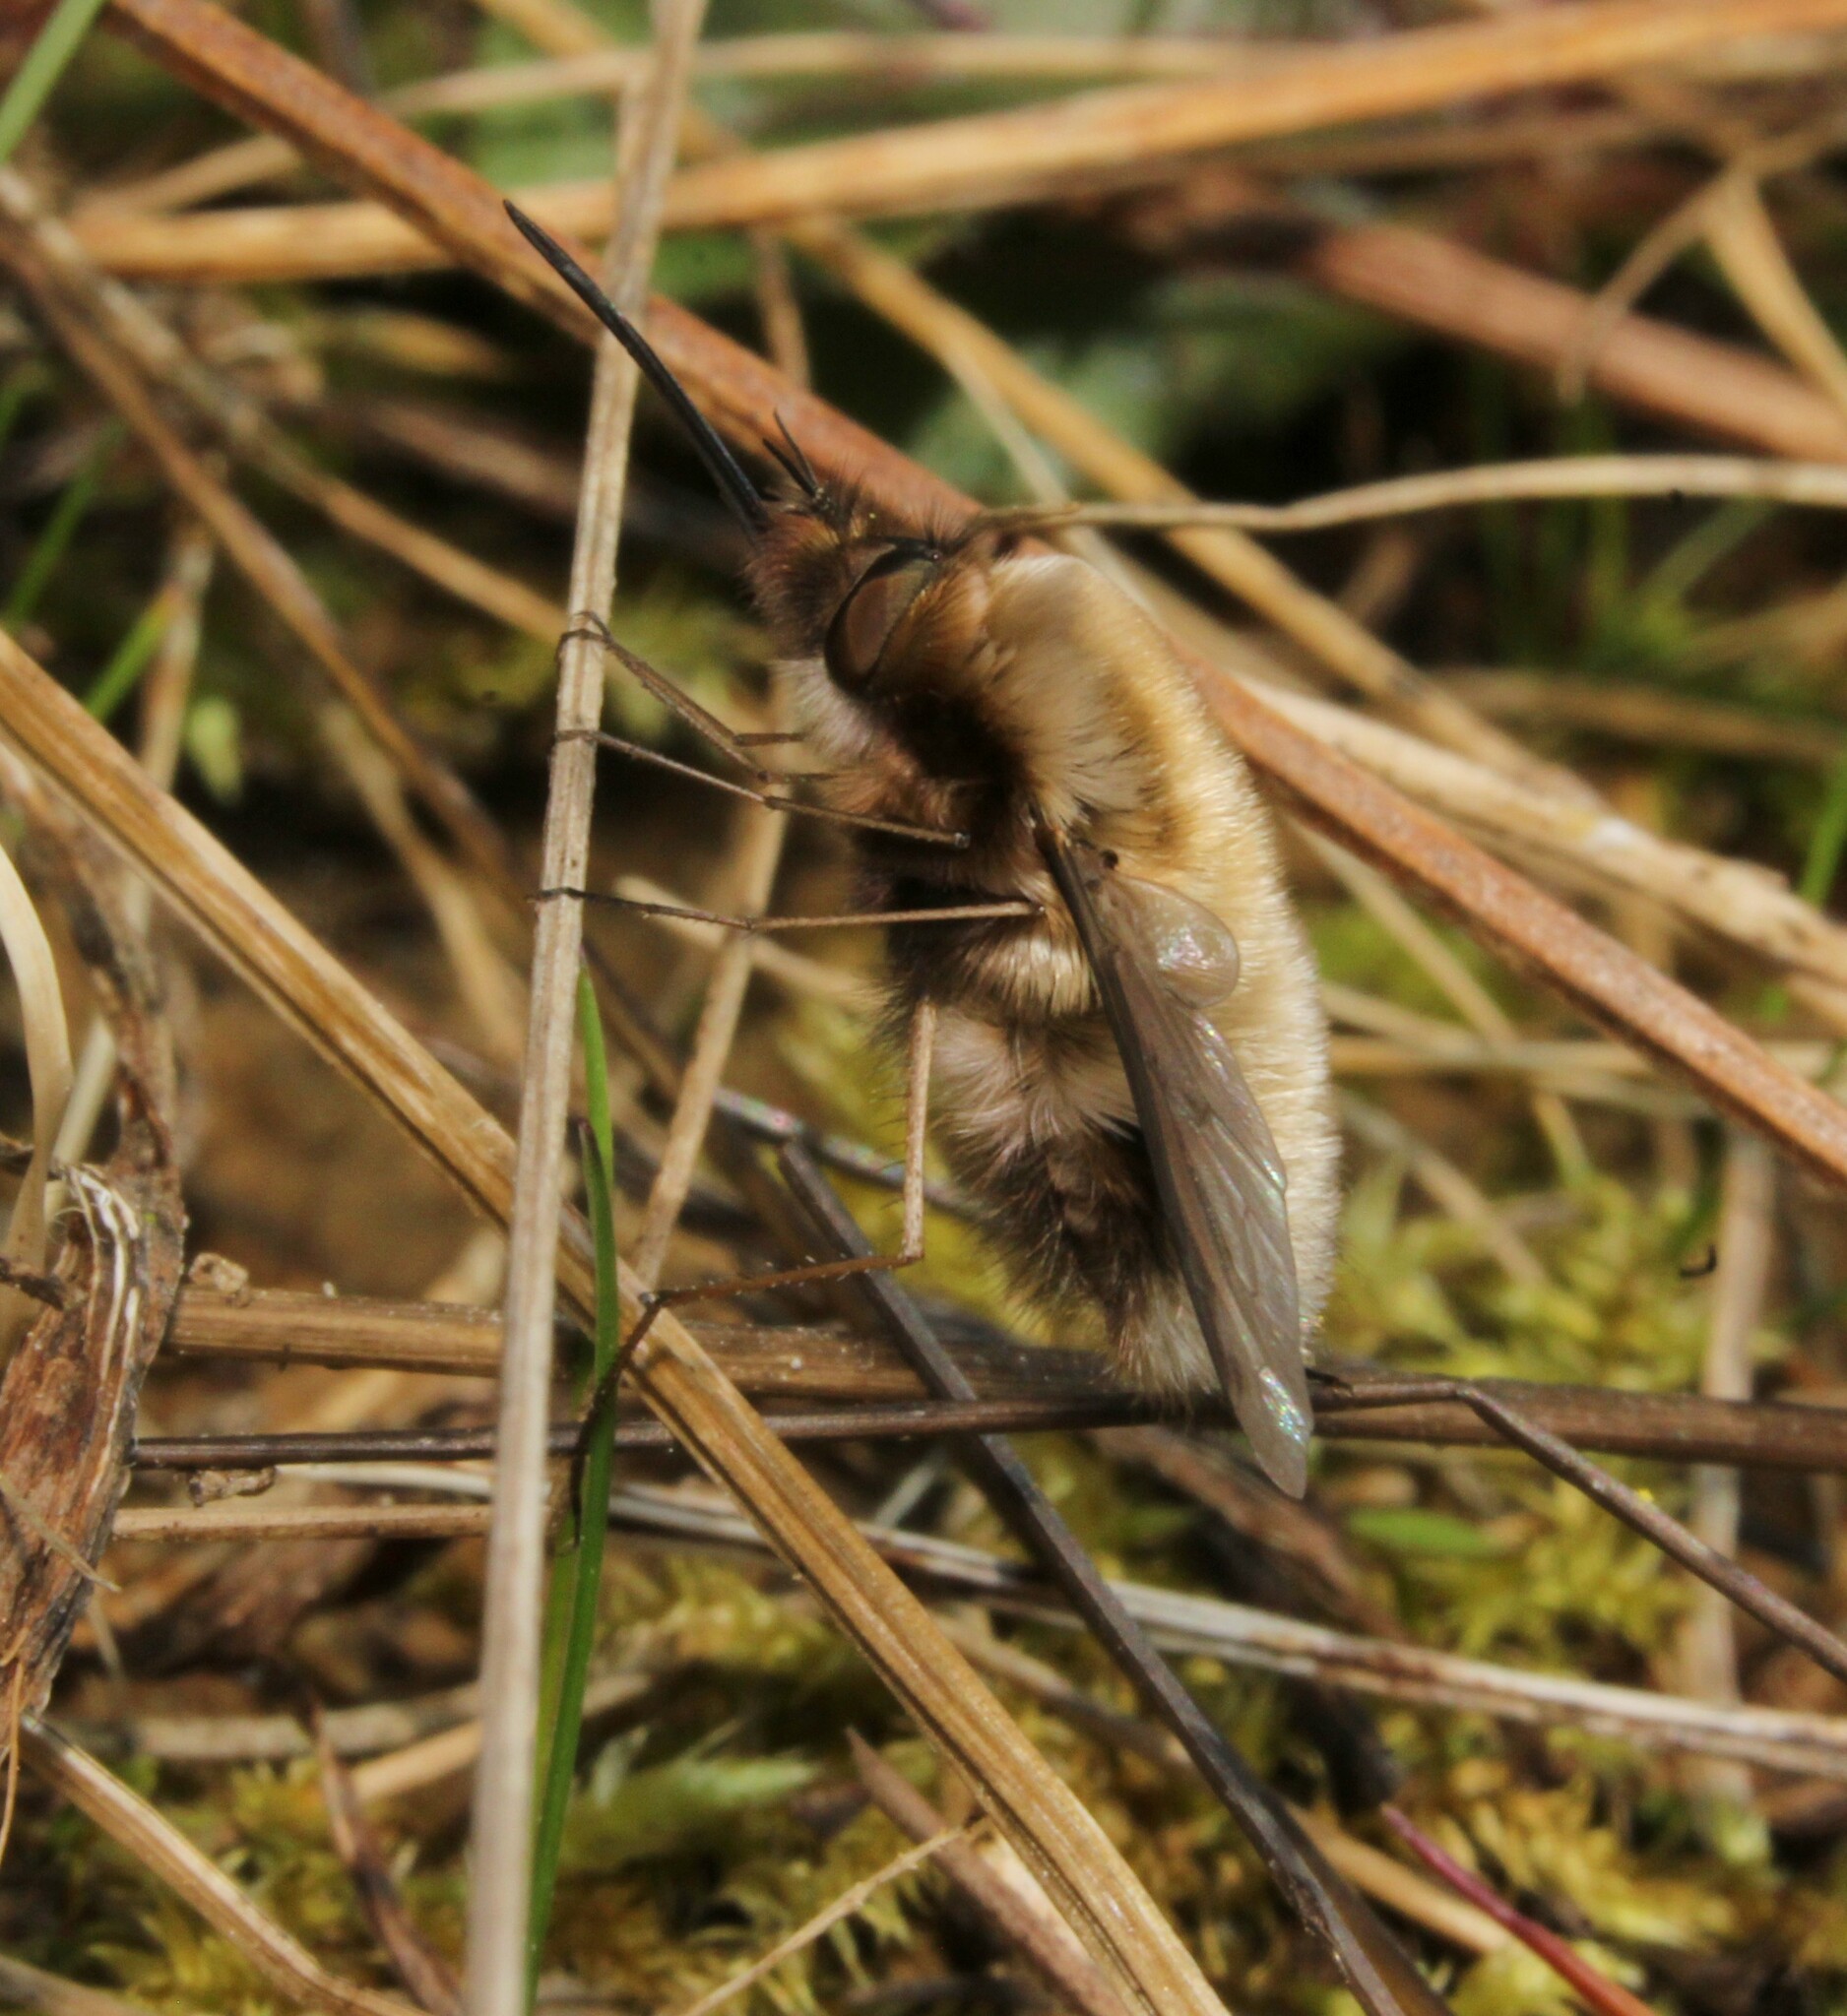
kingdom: Animalia
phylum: Arthropoda
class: Insecta
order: Diptera
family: Bombyliidae
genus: Bombylius
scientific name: Bombylius major
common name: Bee fly
